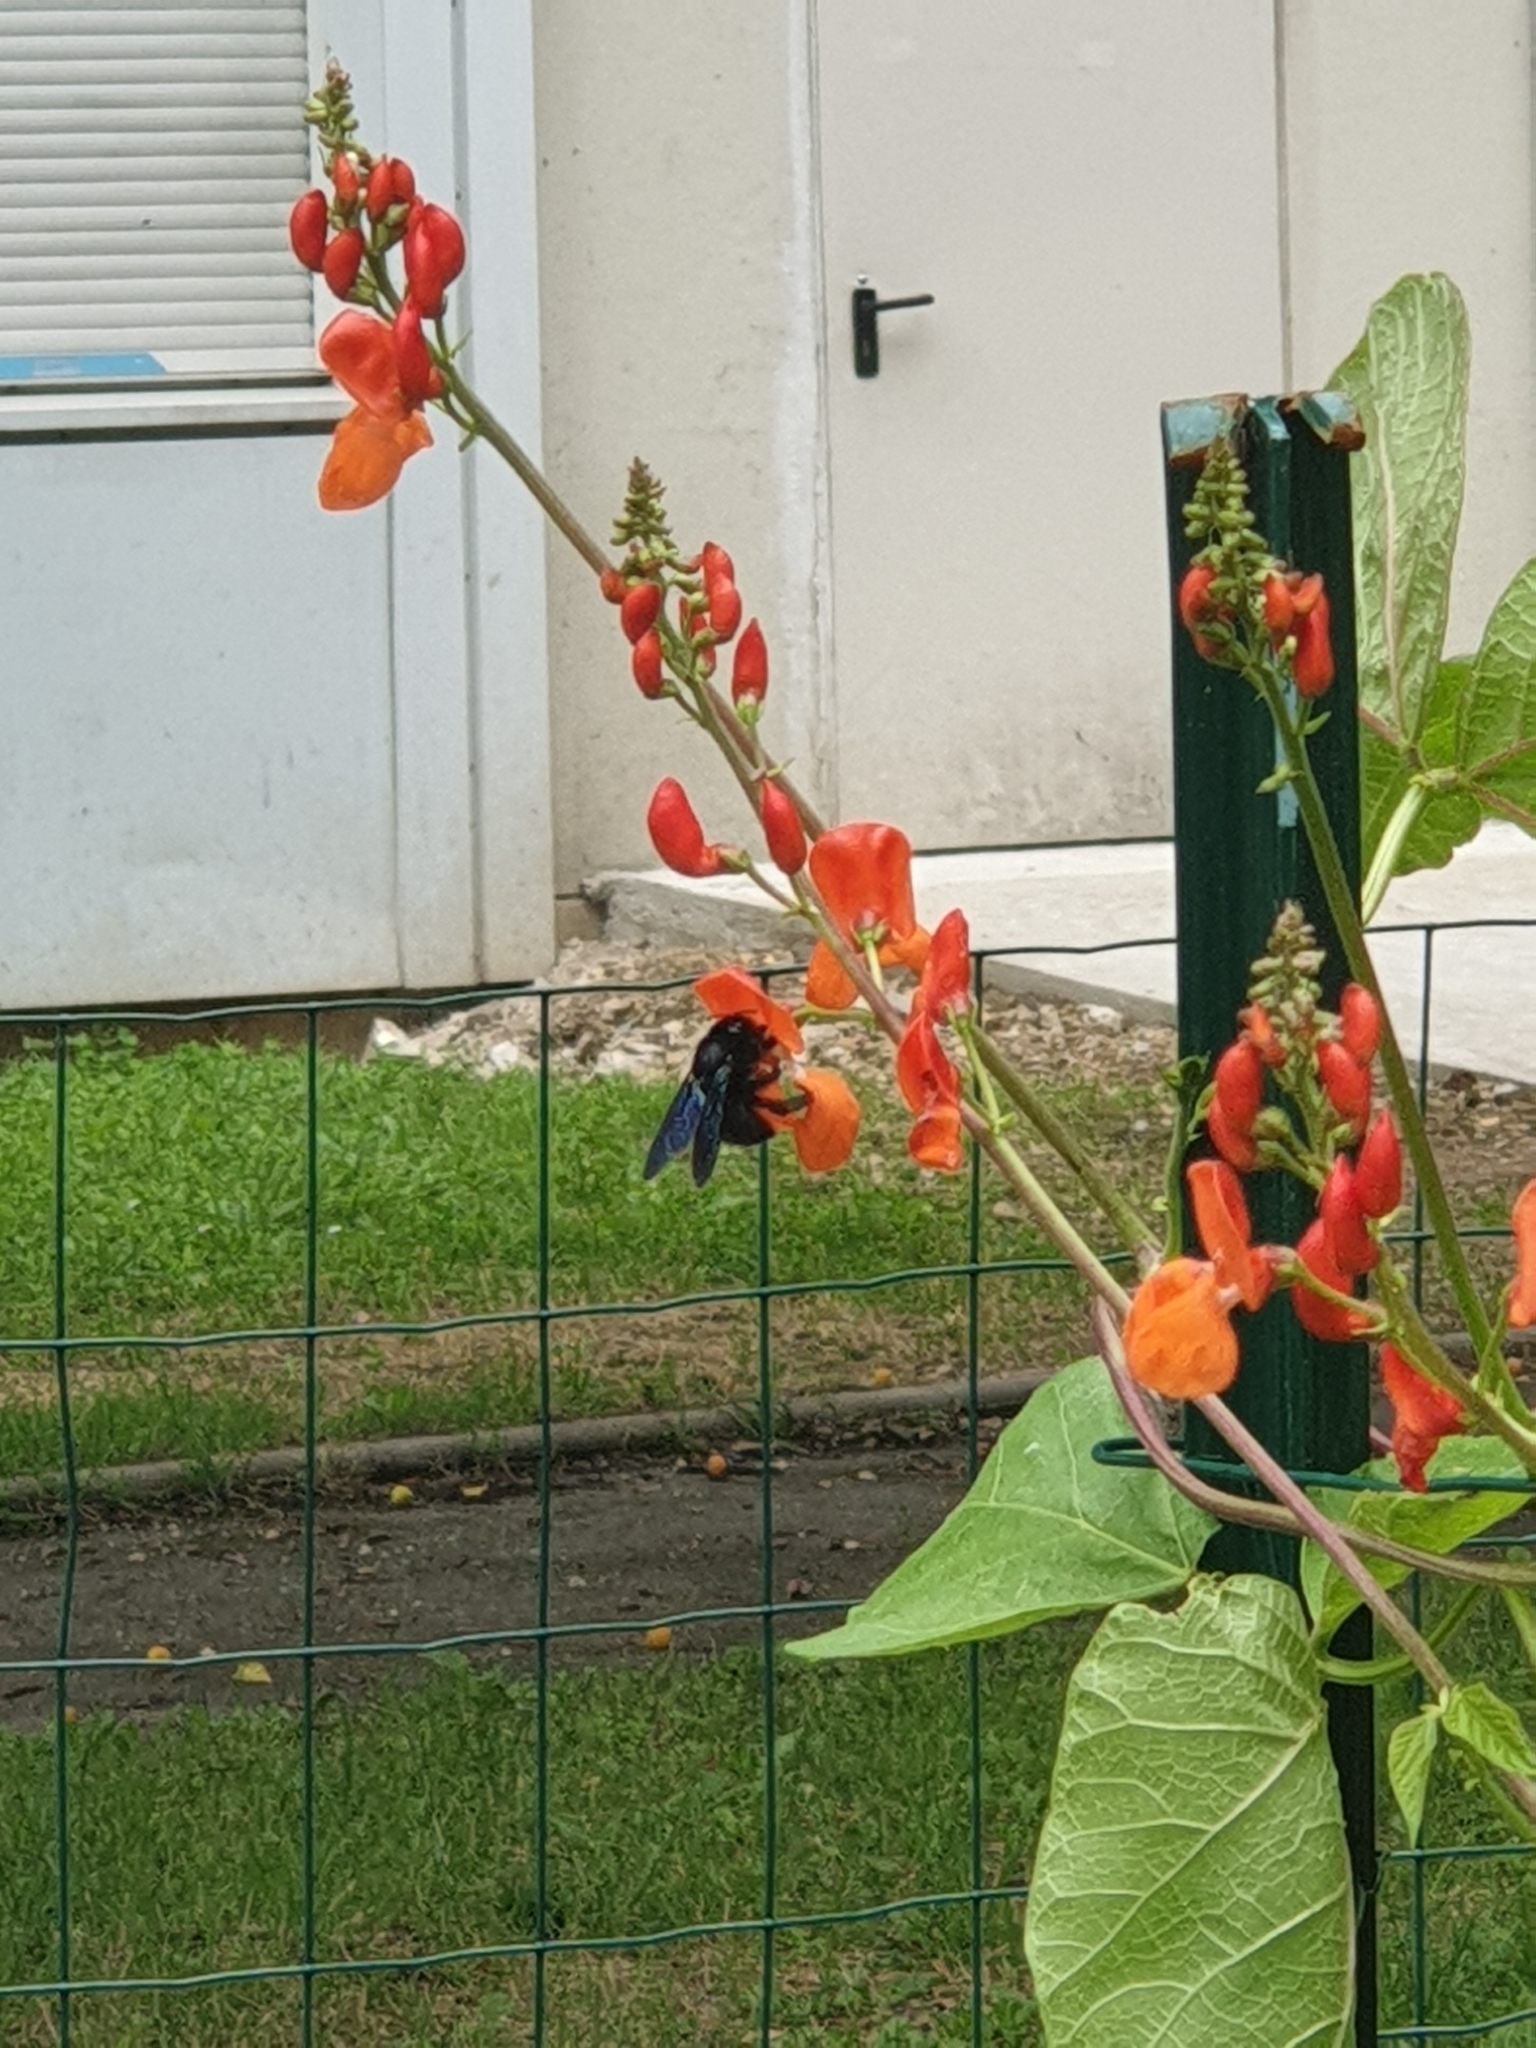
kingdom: Animalia
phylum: Arthropoda
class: Insecta
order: Hymenoptera
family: Apidae
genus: Xylocopa
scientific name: Xylocopa violacea
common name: Violet carpenter bee
